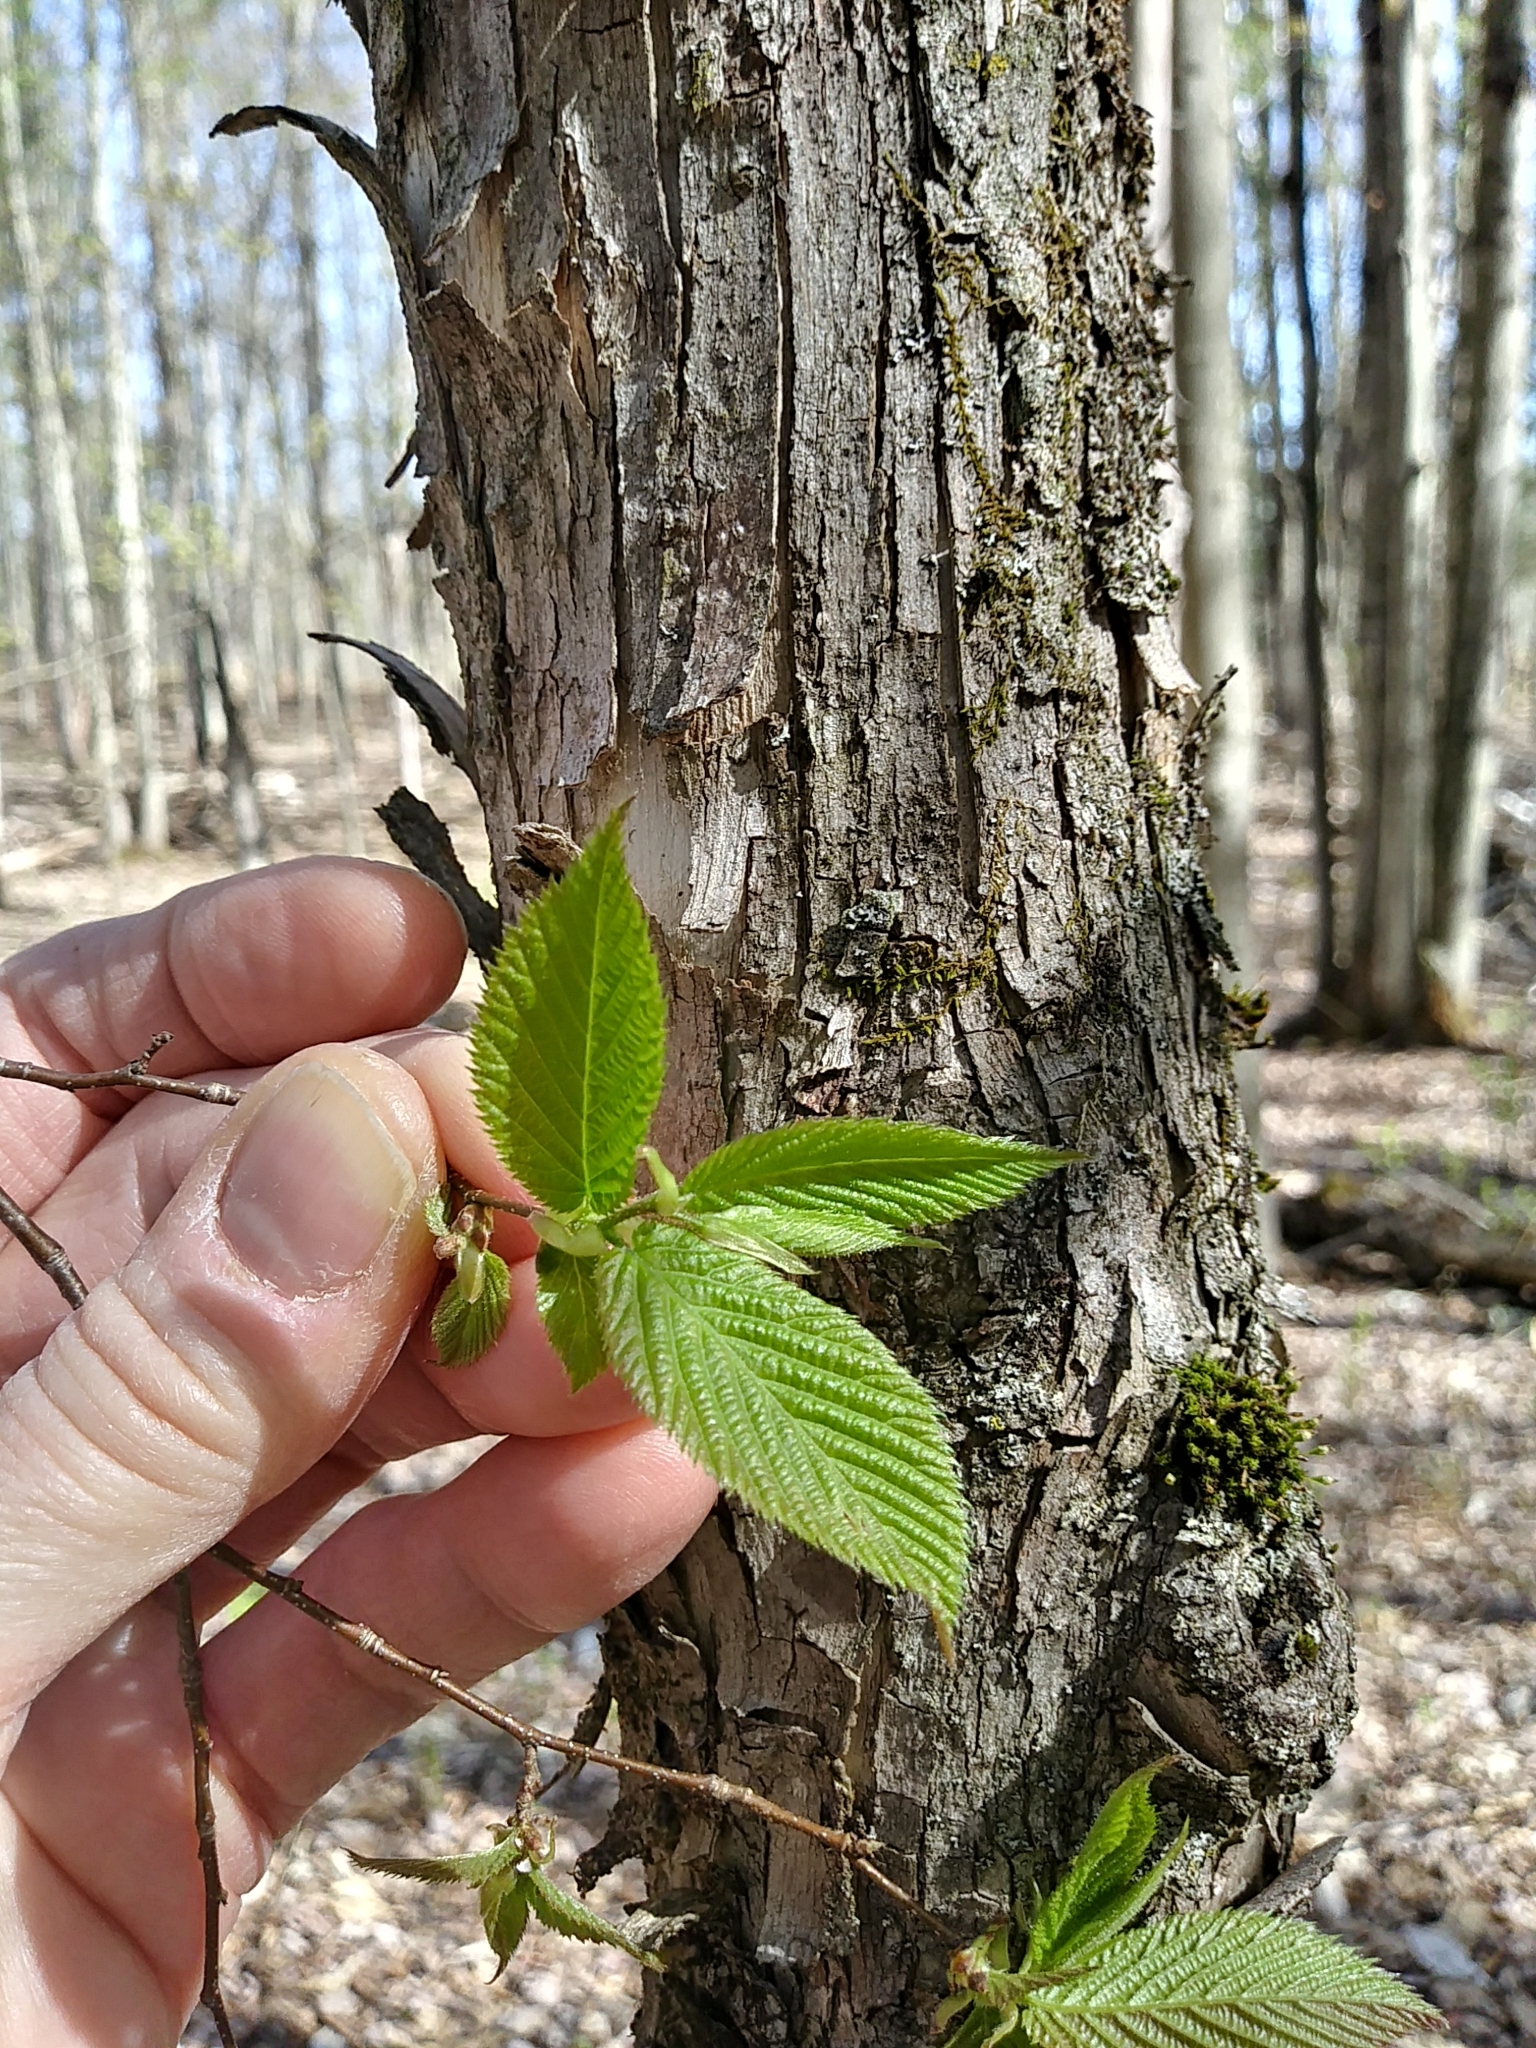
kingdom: Plantae
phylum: Tracheophyta
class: Magnoliopsida
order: Fagales
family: Betulaceae
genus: Ostrya
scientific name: Ostrya virginiana
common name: Ironwood
